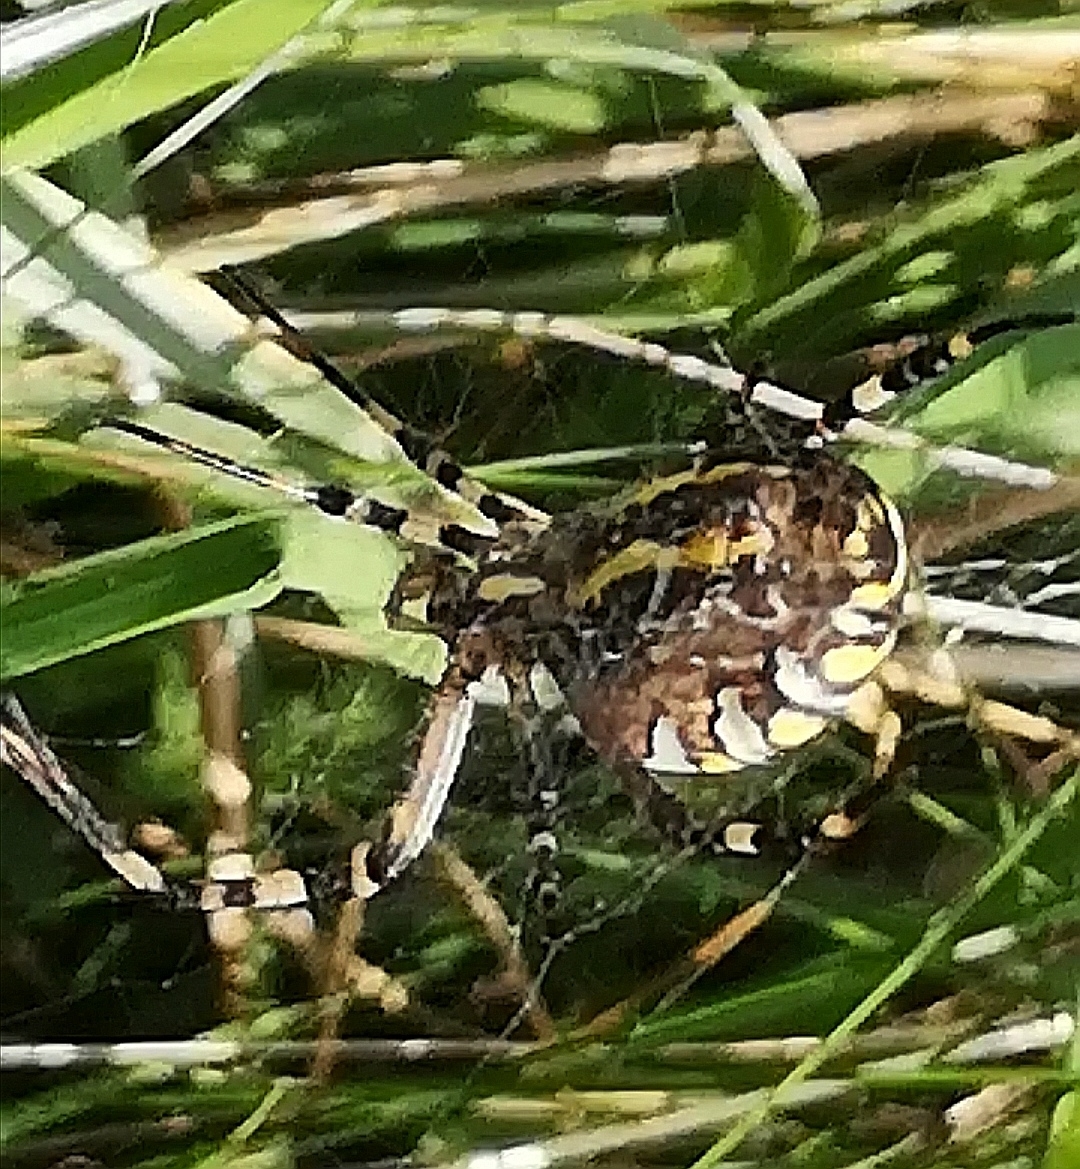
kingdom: Animalia
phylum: Arthropoda
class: Arachnida
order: Araneae
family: Araneidae
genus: Argiope
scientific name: Argiope bruennichi
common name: Wasp spider
